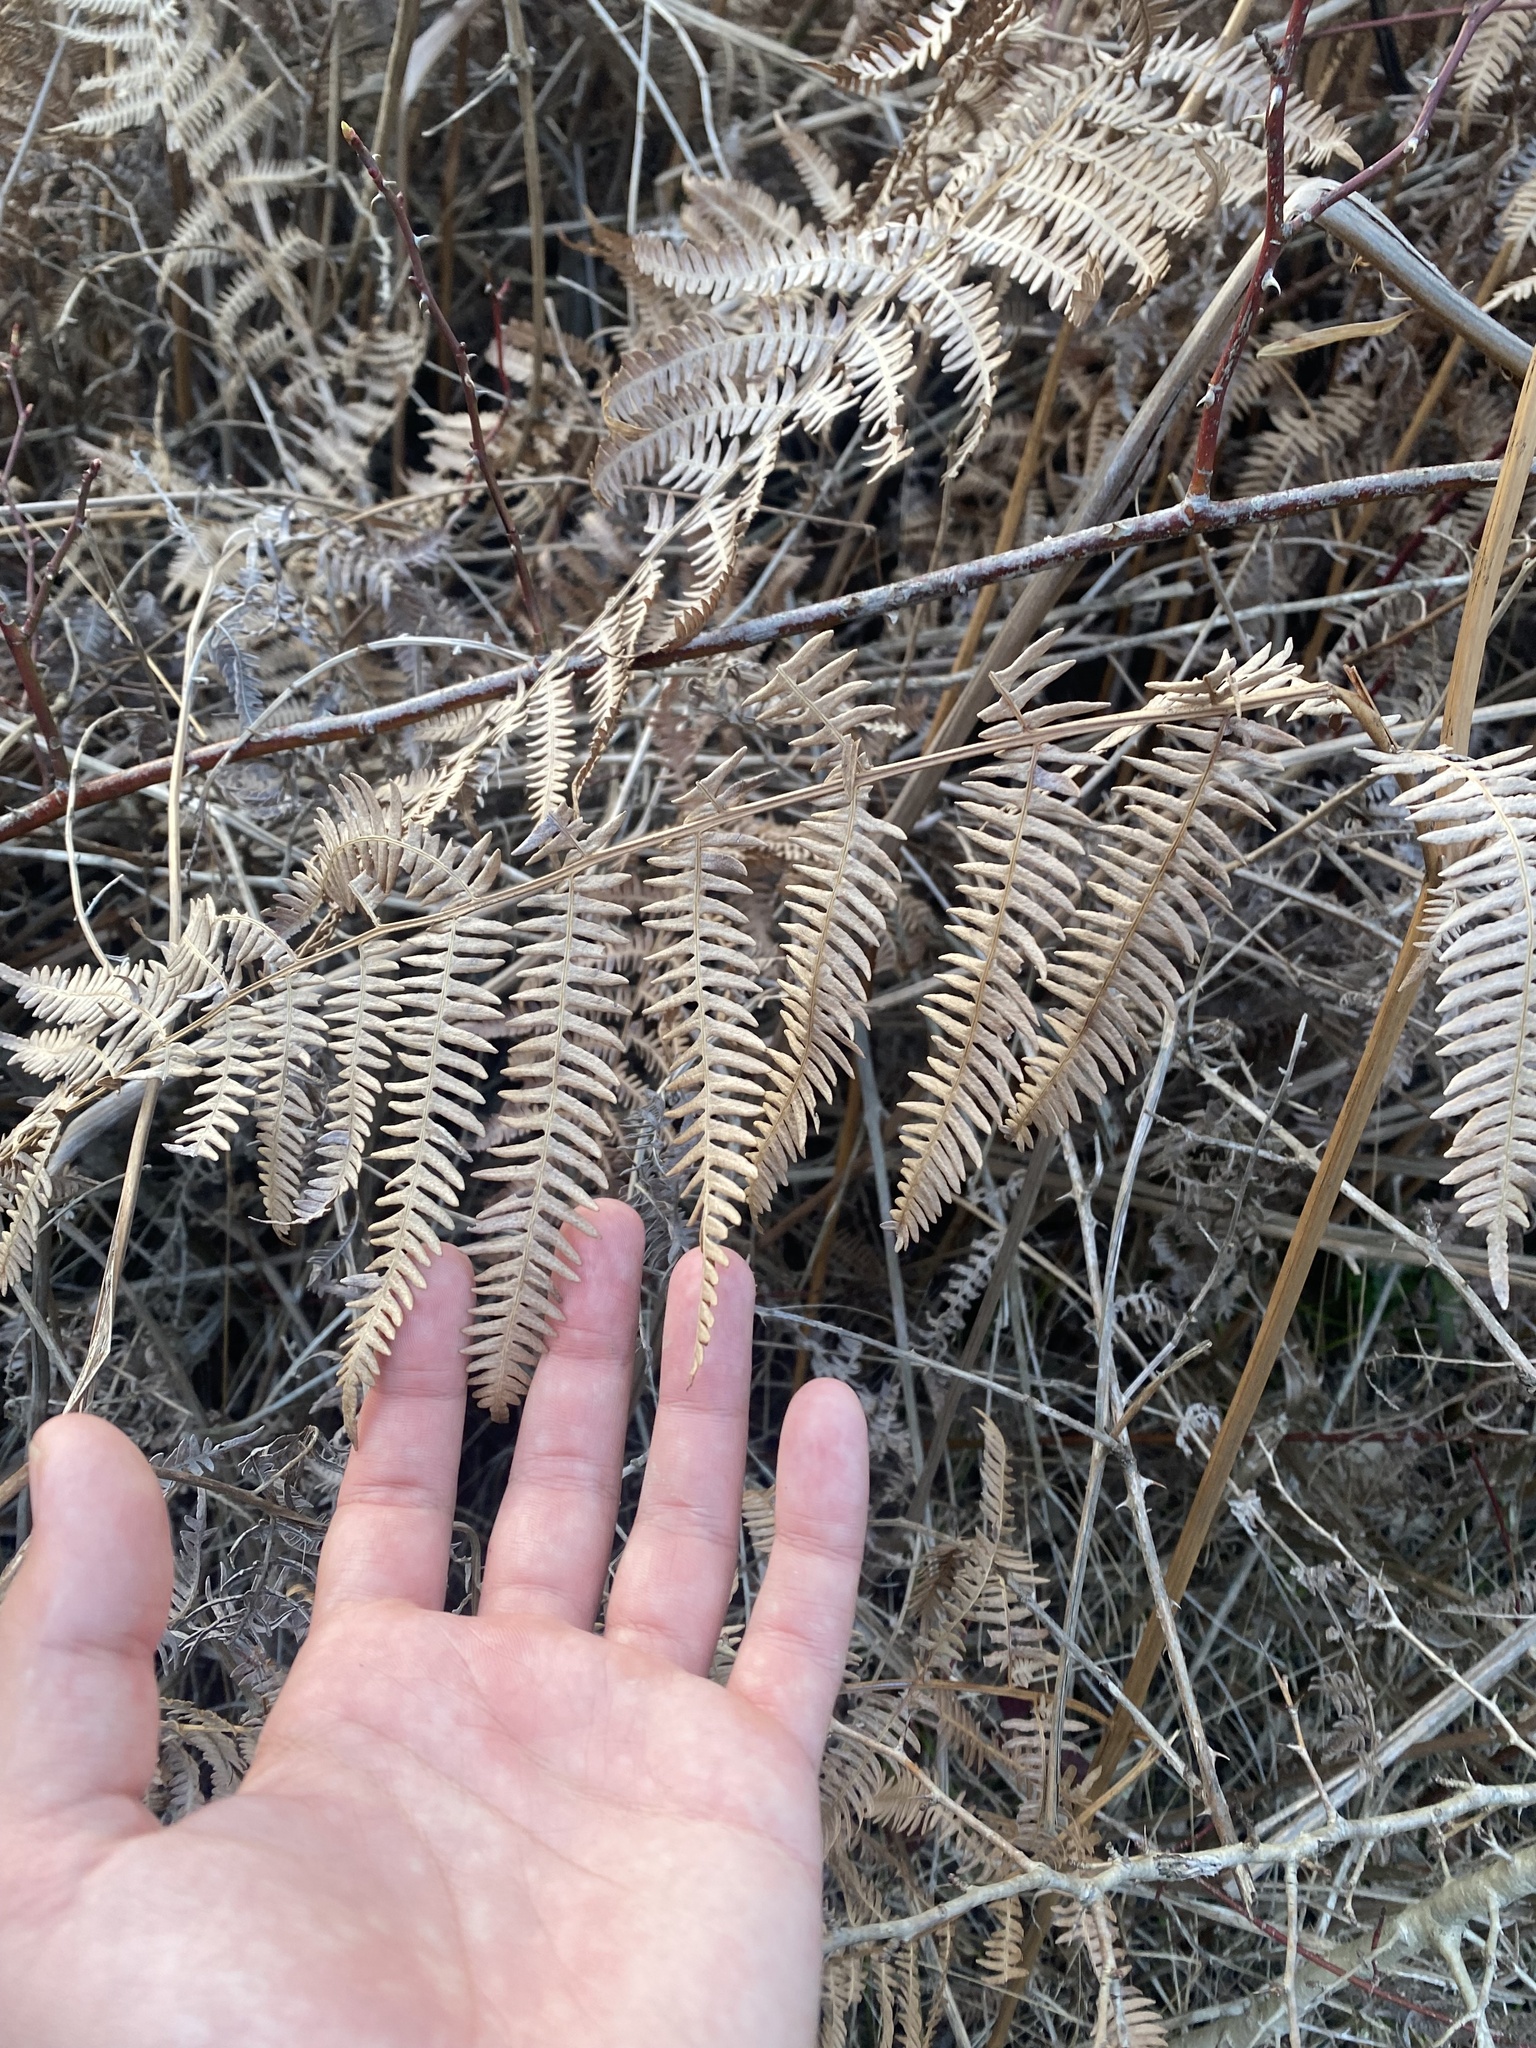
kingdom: Plantae
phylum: Tracheophyta
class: Polypodiopsida
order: Polypodiales
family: Dennstaedtiaceae
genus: Pteridium
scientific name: Pteridium tauricum
